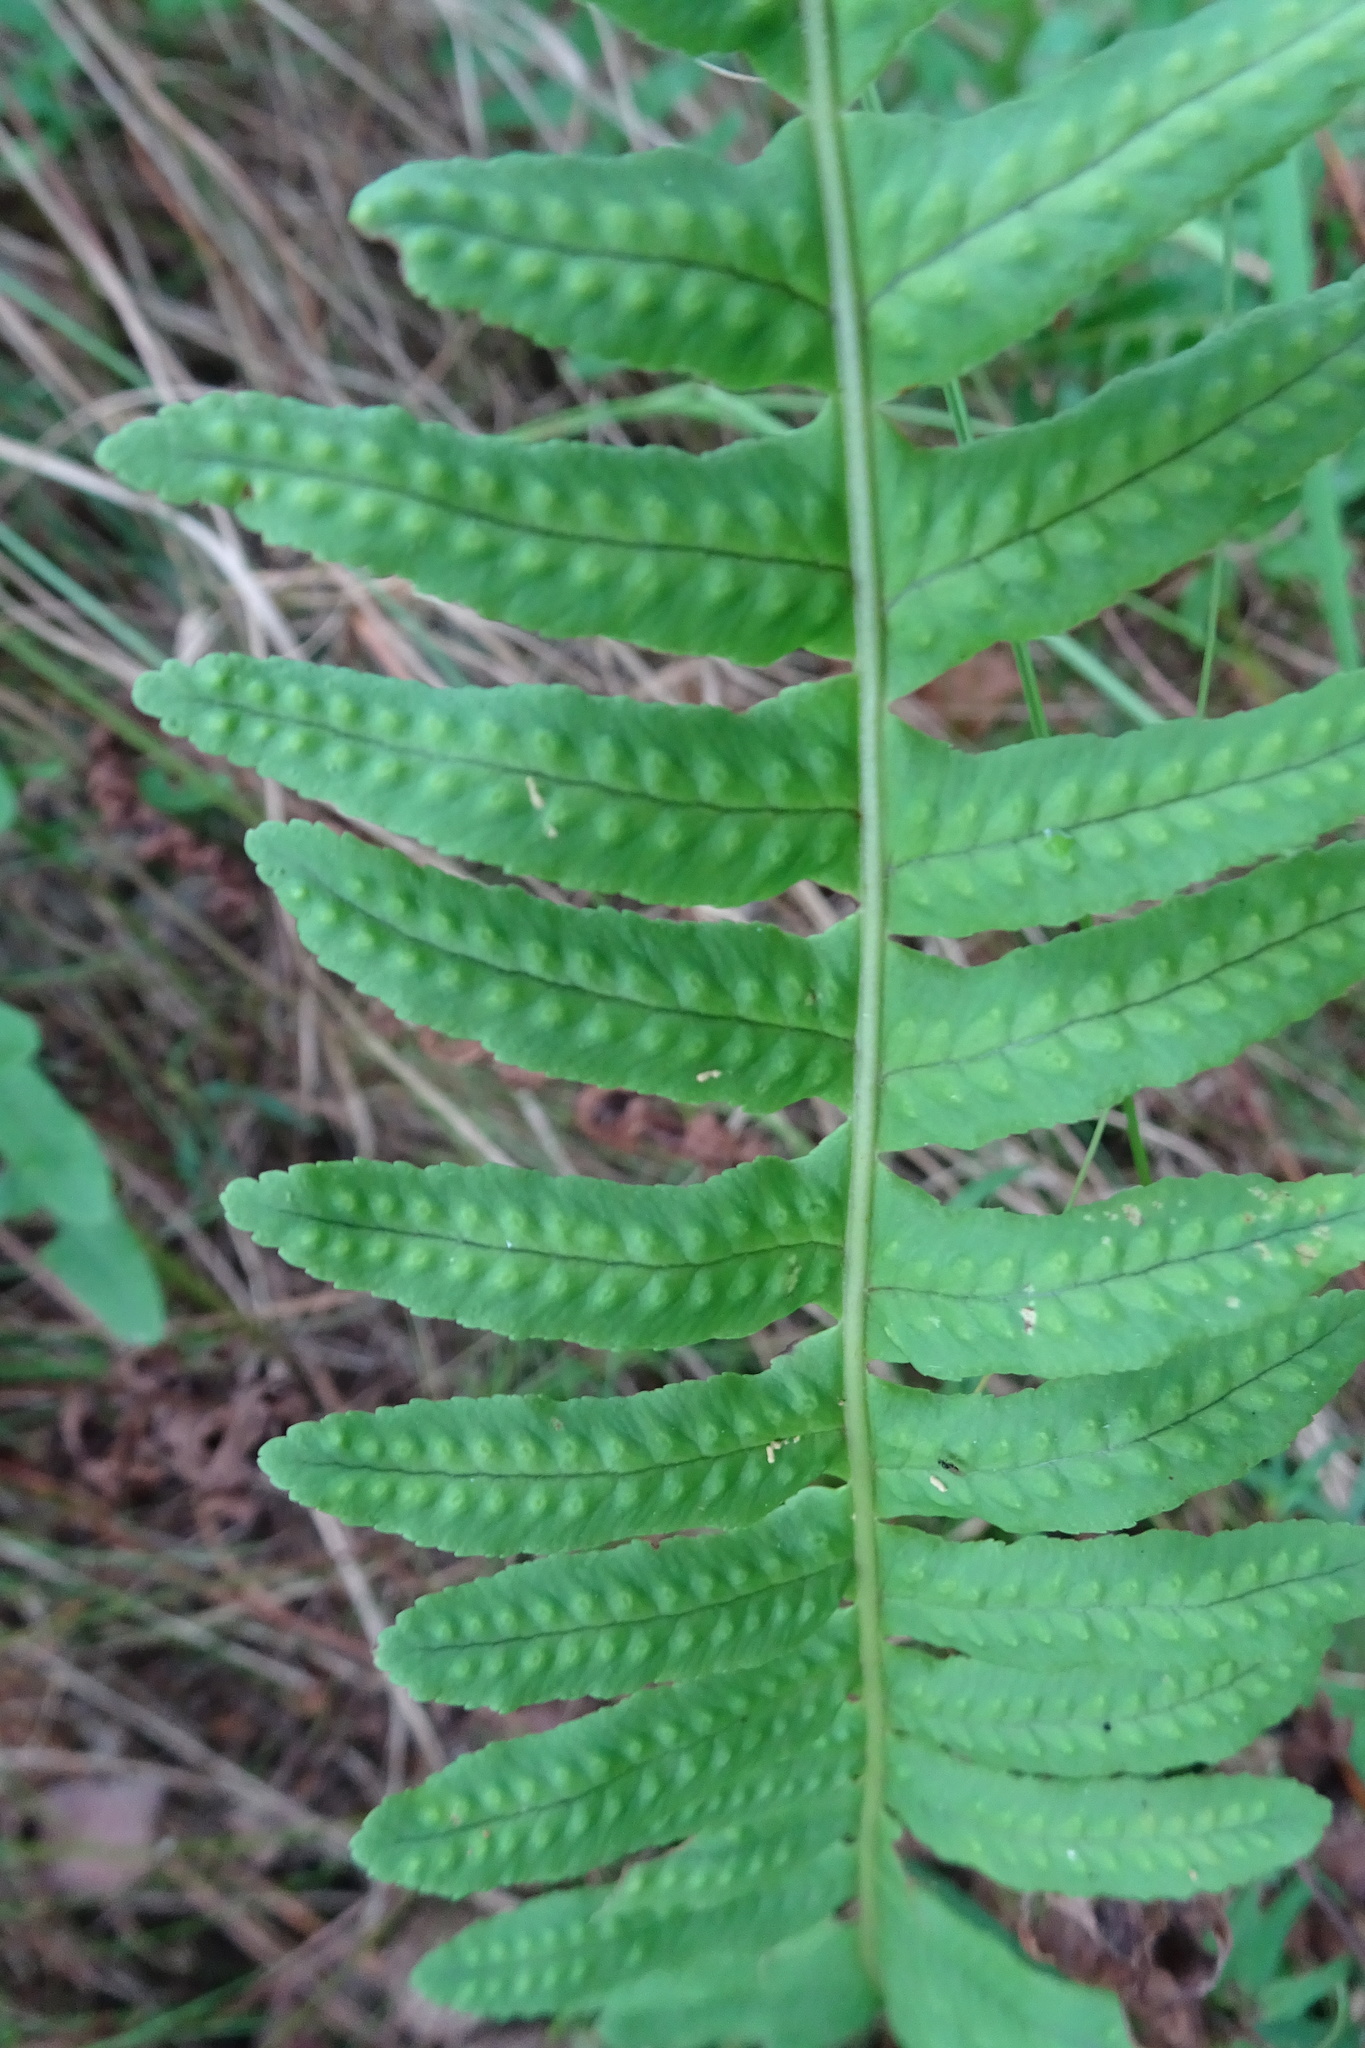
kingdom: Plantae
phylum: Tracheophyta
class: Polypodiopsida
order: Polypodiales
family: Polypodiaceae
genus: Polypodium
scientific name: Polypodium vulgare
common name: Common polypody
